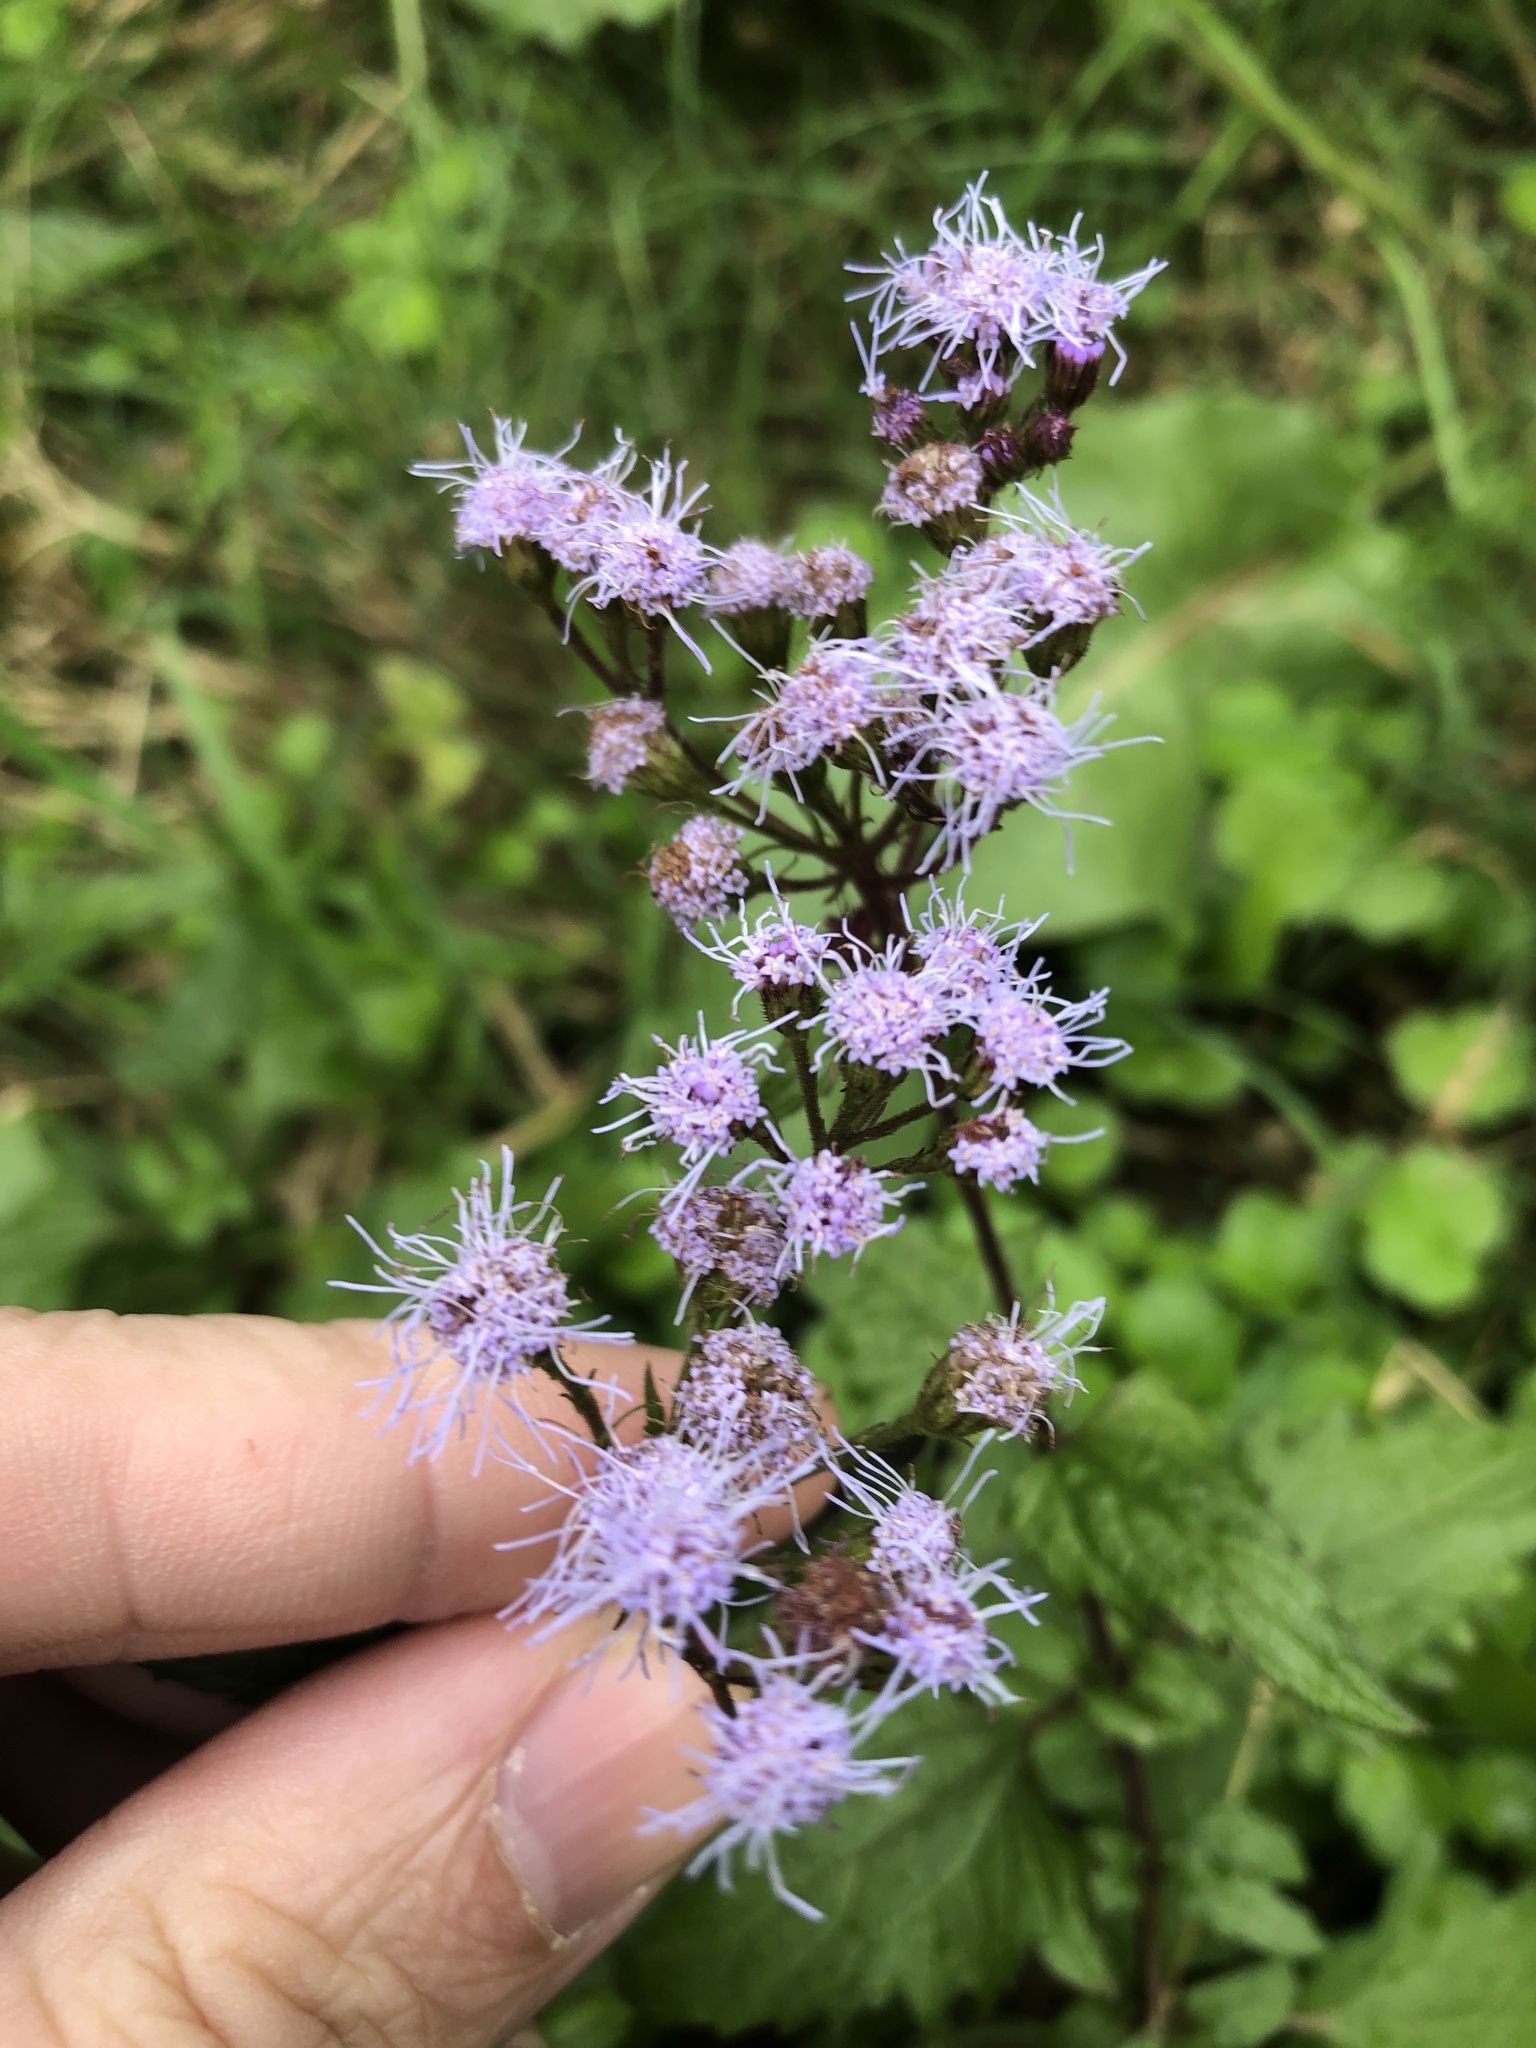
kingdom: Plantae
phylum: Tracheophyta
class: Magnoliopsida
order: Asterales
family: Asteraceae
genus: Conoclinium
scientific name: Conoclinium coelestinum
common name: Blue mistflower
